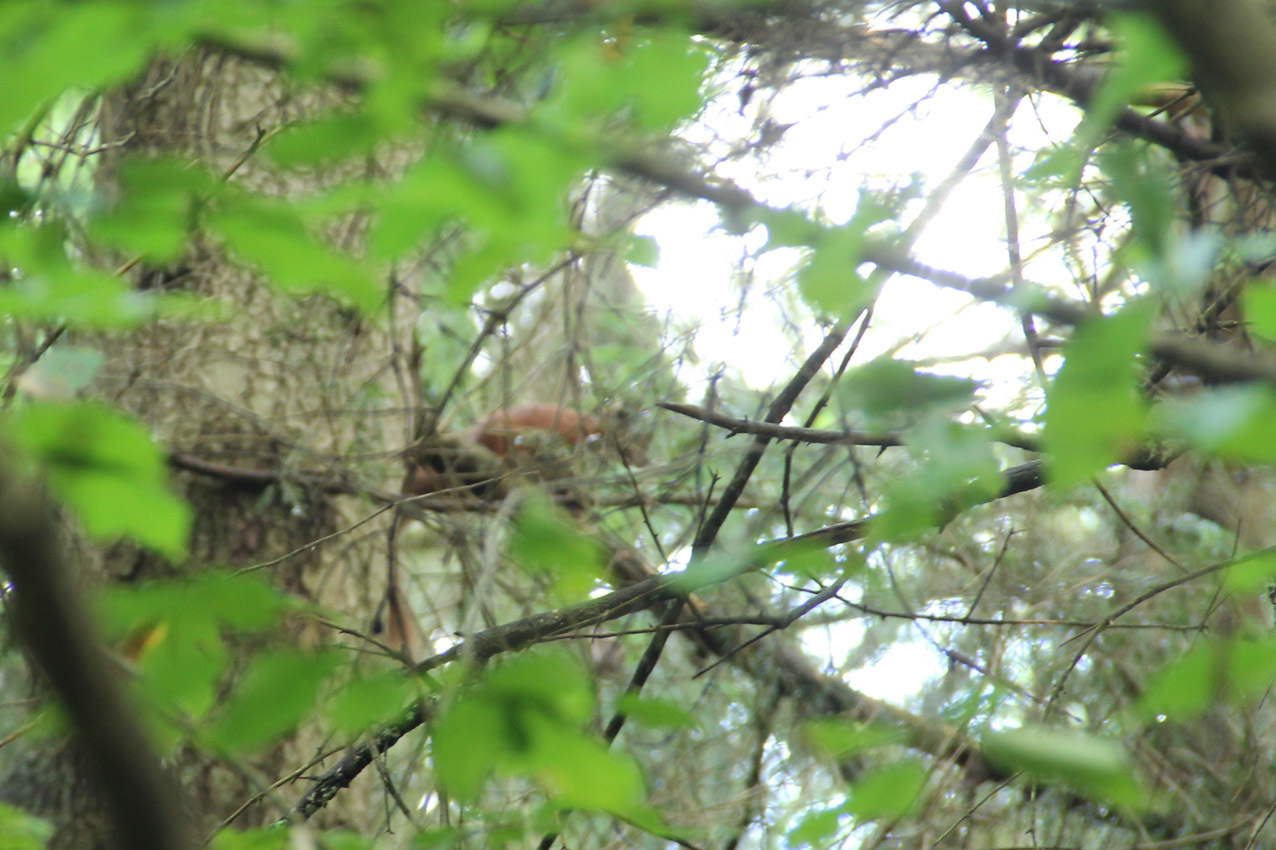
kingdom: Animalia
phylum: Chordata
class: Mammalia
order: Rodentia
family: Sciuridae
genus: Sciurus
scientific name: Sciurus vulgaris
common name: Eurasian red squirrel
